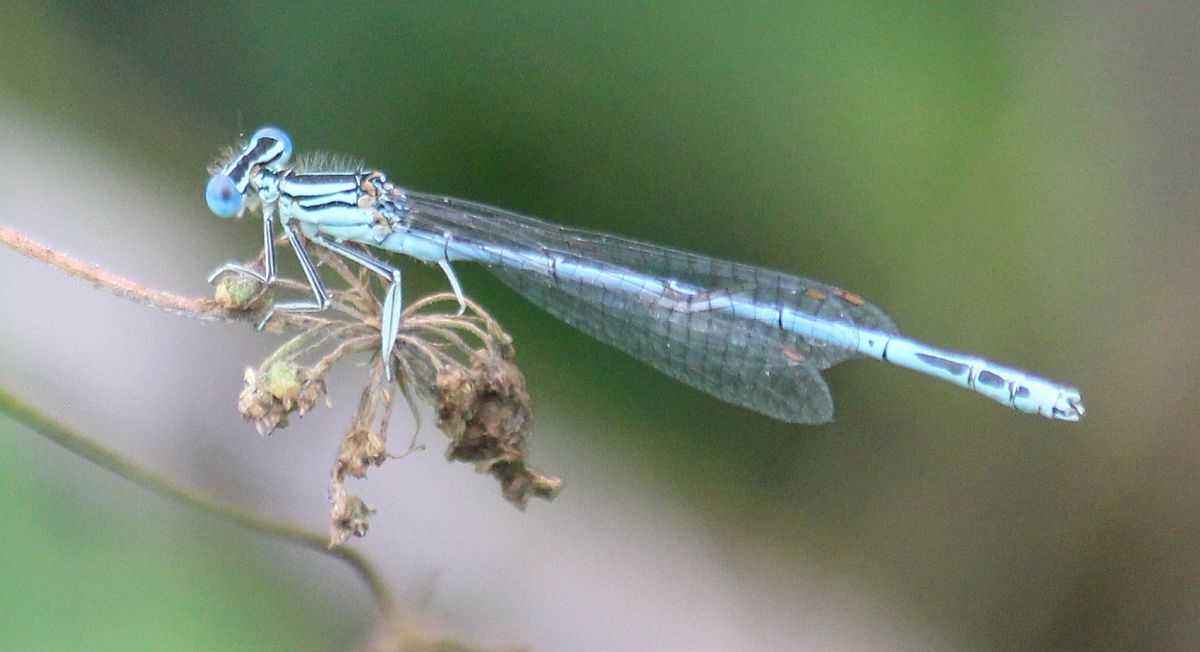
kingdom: Animalia
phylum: Arthropoda
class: Insecta
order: Odonata
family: Platycnemididae
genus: Platycnemis
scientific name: Platycnemis pennipes
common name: White-legged damselfly
